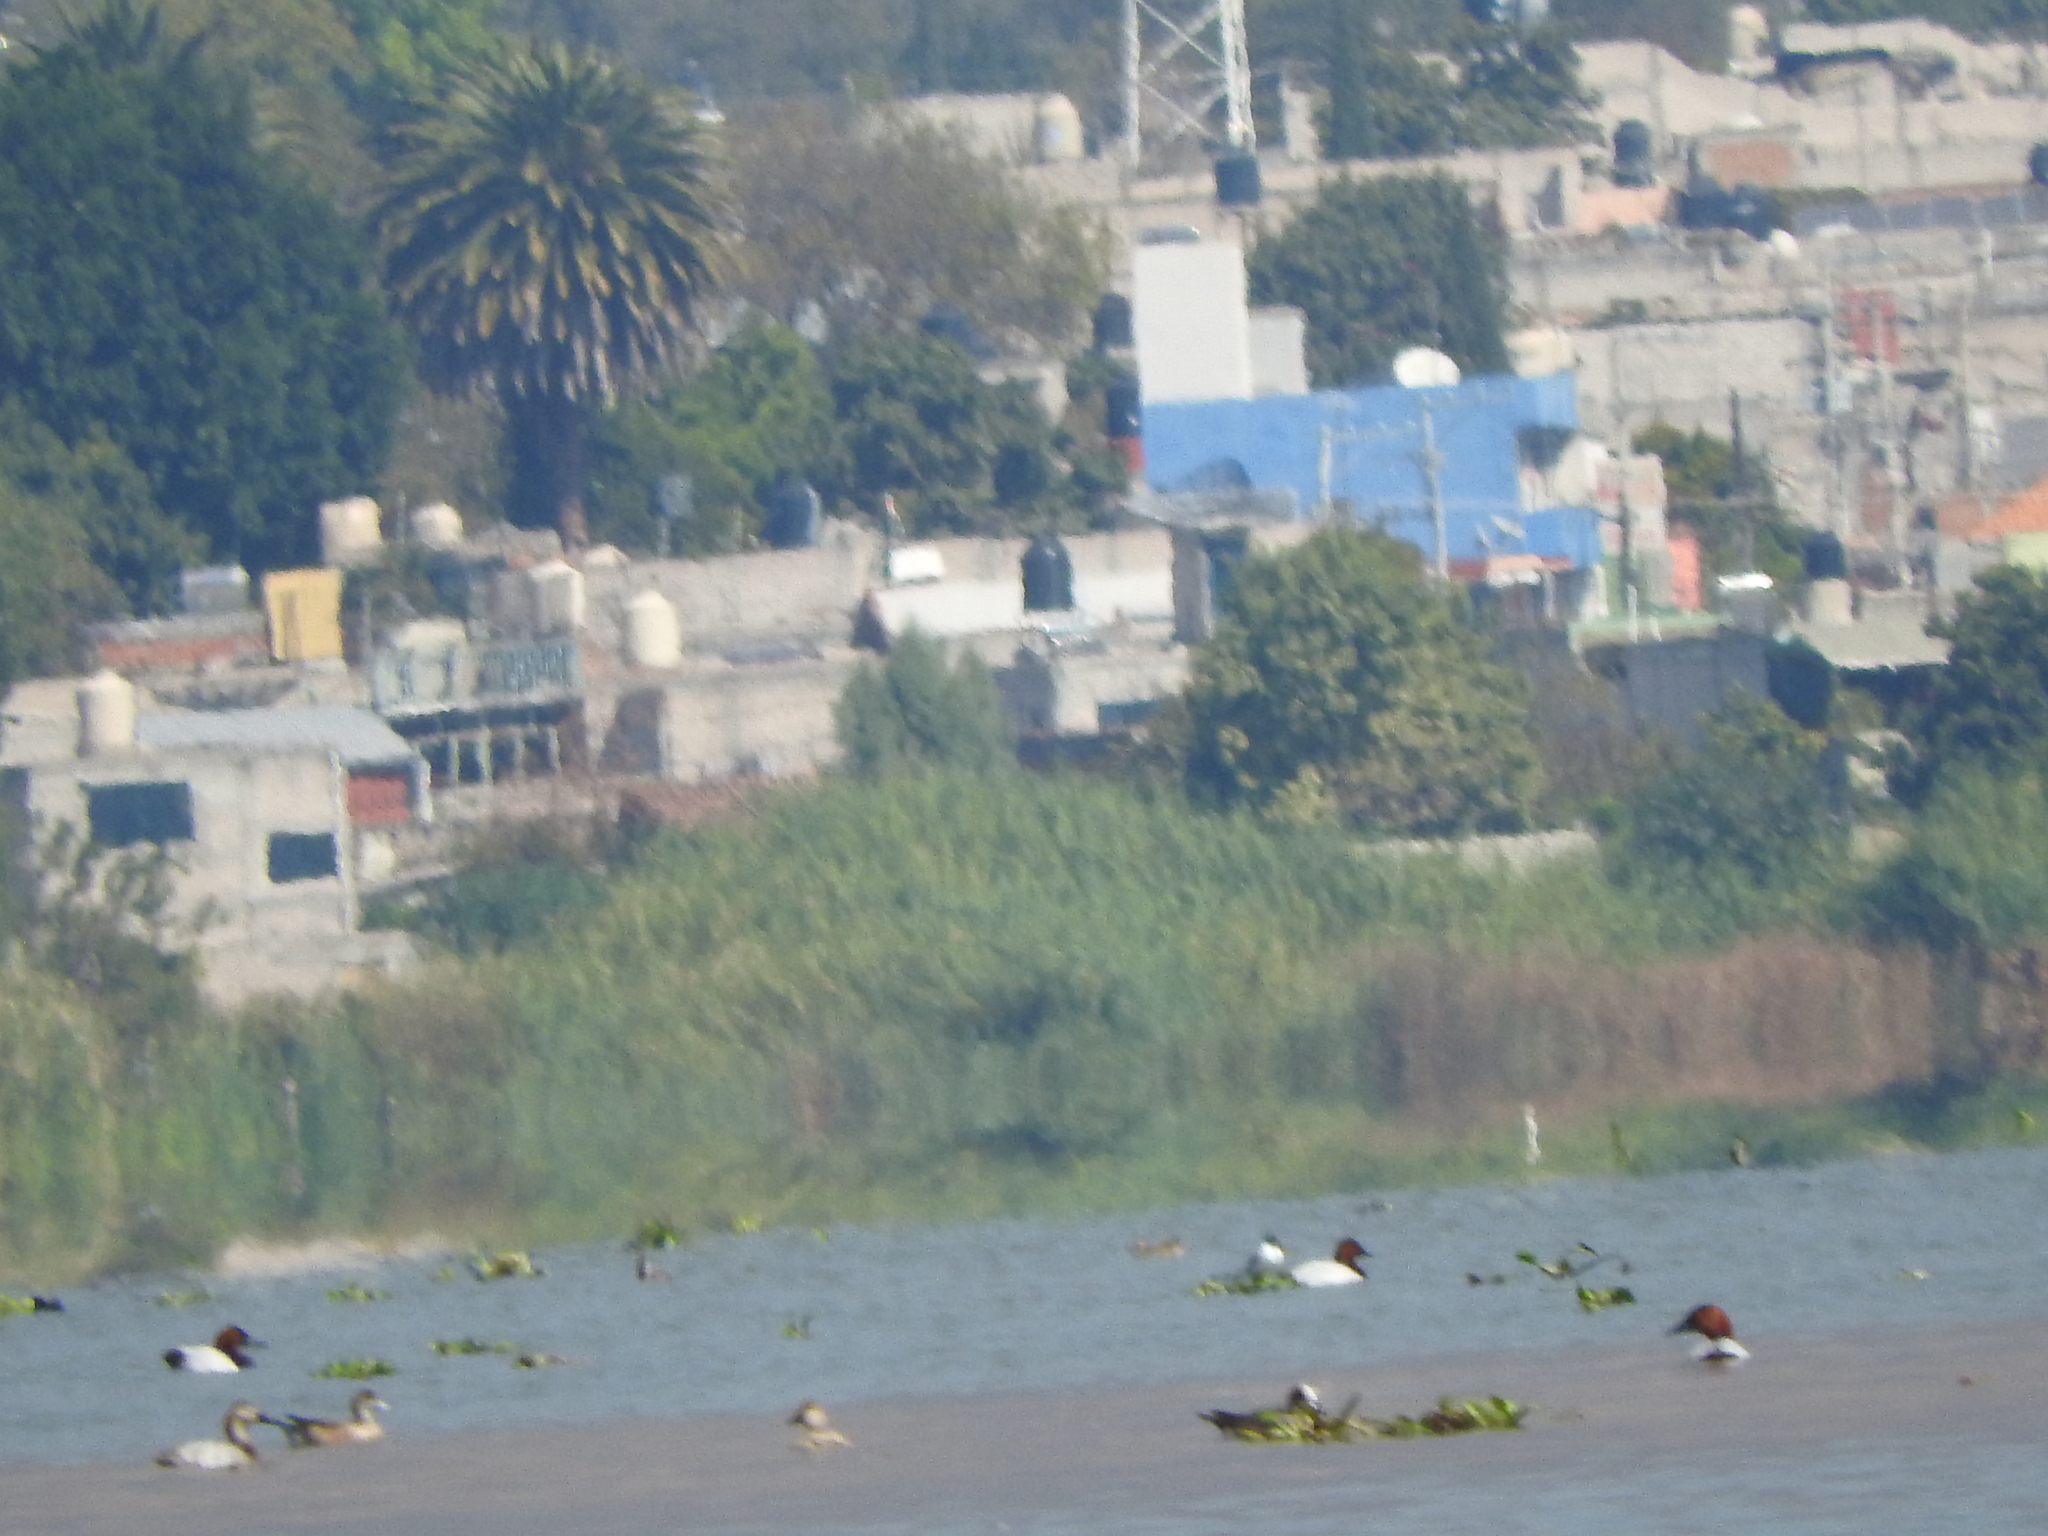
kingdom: Animalia
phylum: Chordata
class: Aves
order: Anseriformes
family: Anatidae
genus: Aythya
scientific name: Aythya valisineria
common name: Canvasback
